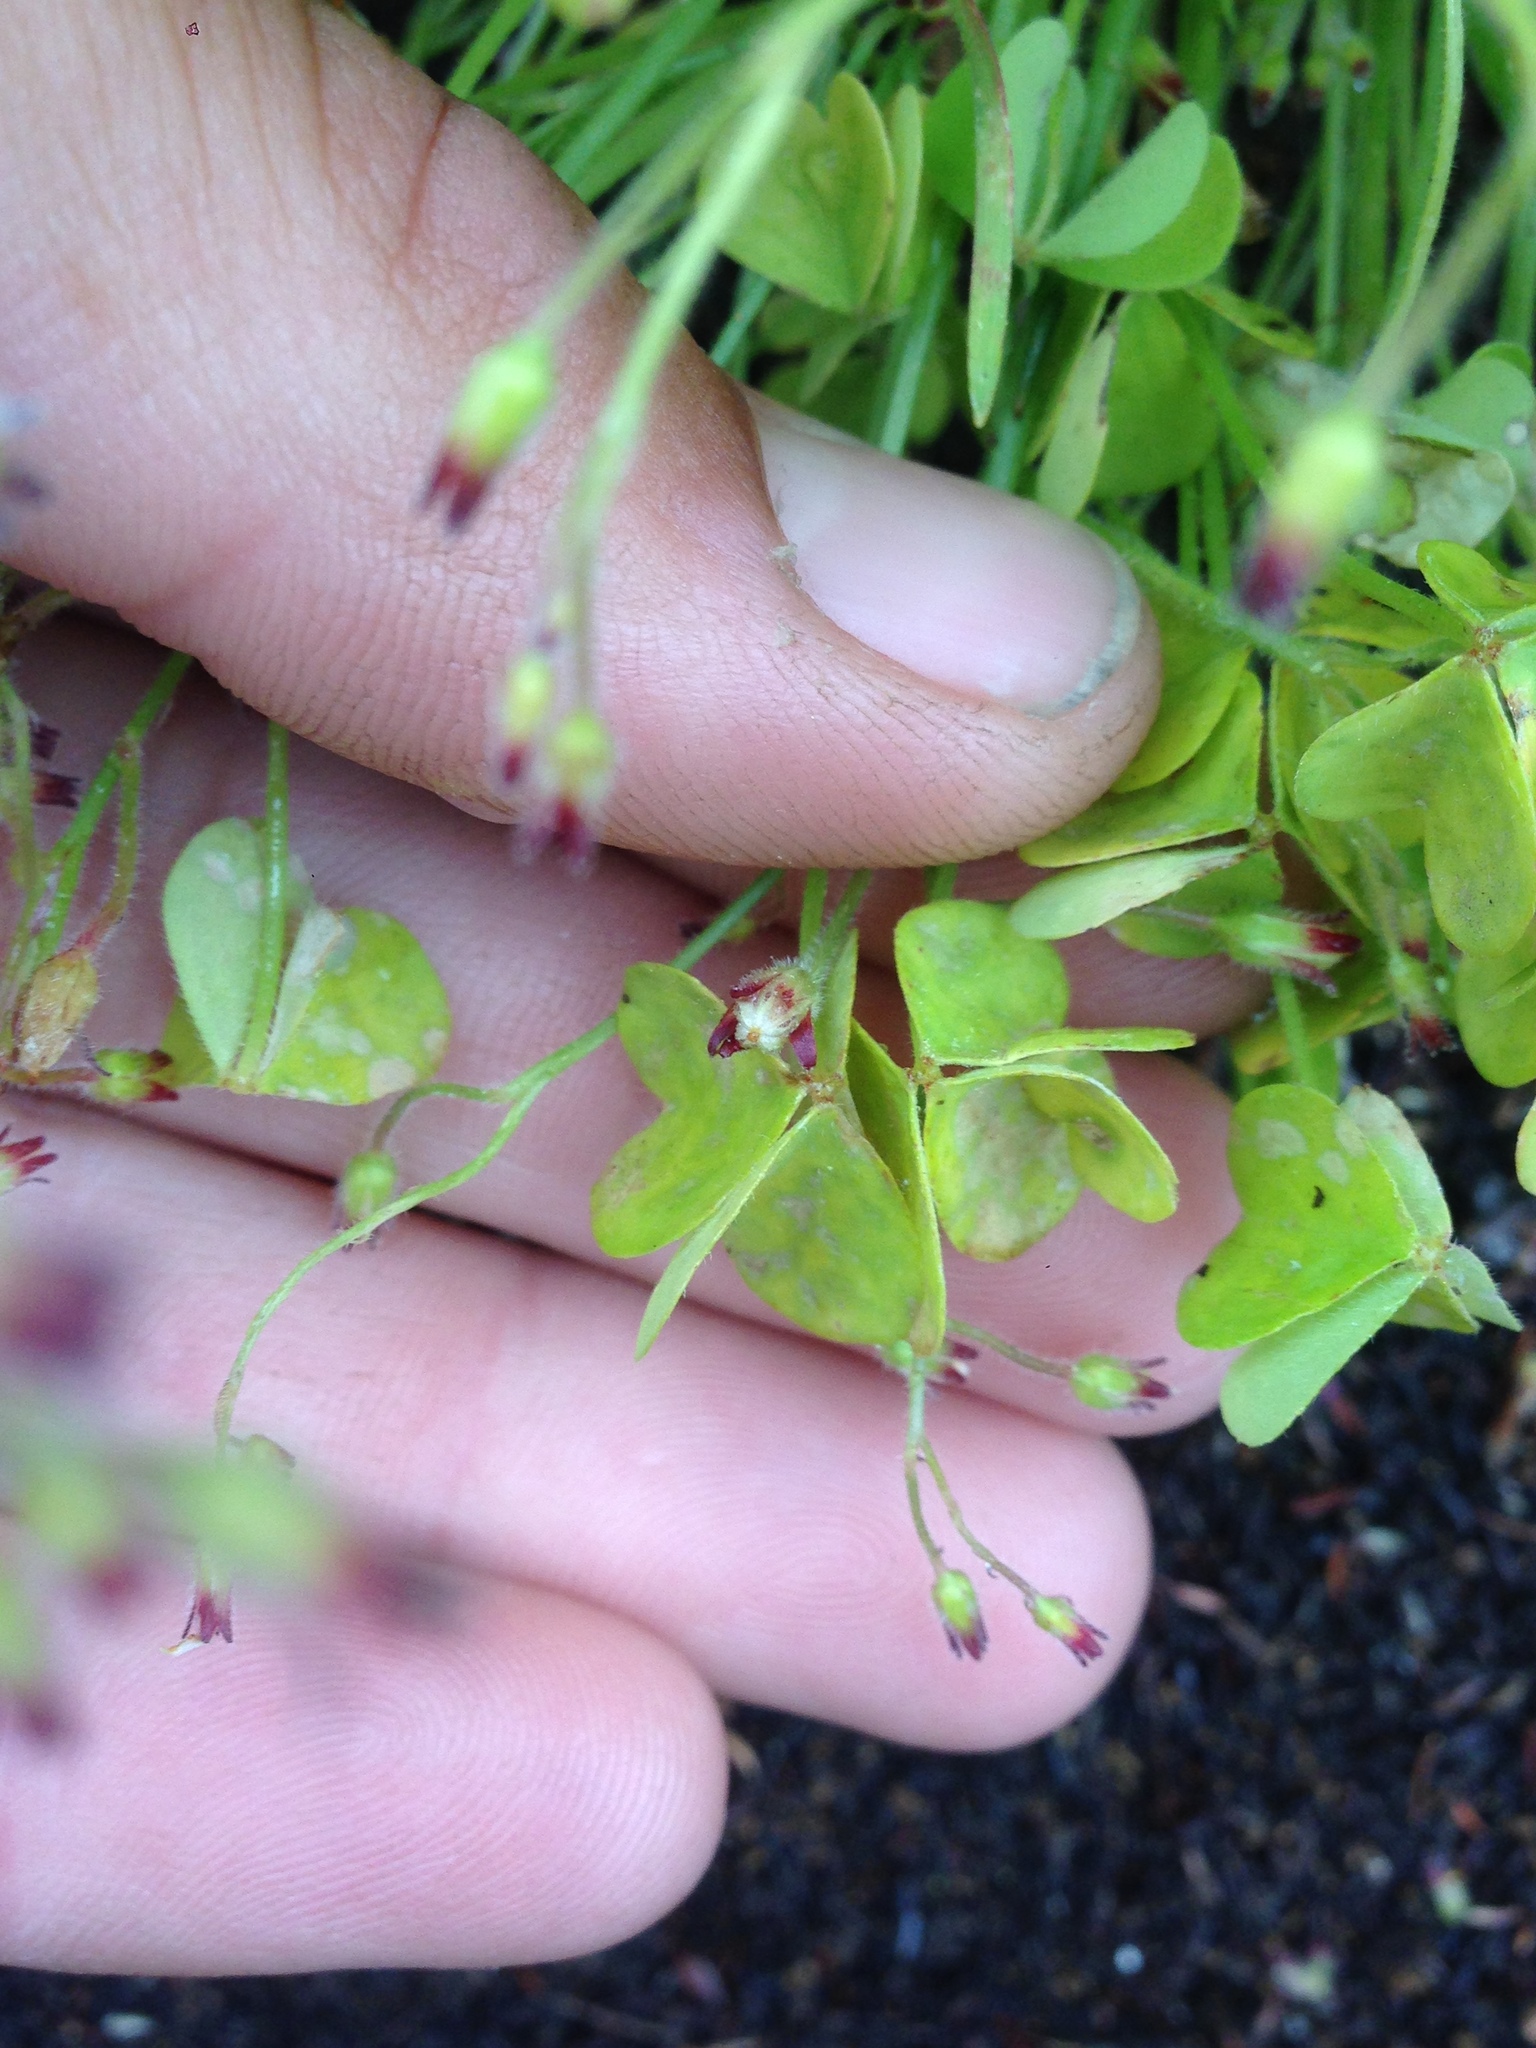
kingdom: Plantae
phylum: Tracheophyta
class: Magnoliopsida
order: Oxalidales
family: Oxalidaceae
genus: Oxalis
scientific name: Oxalis laxa
